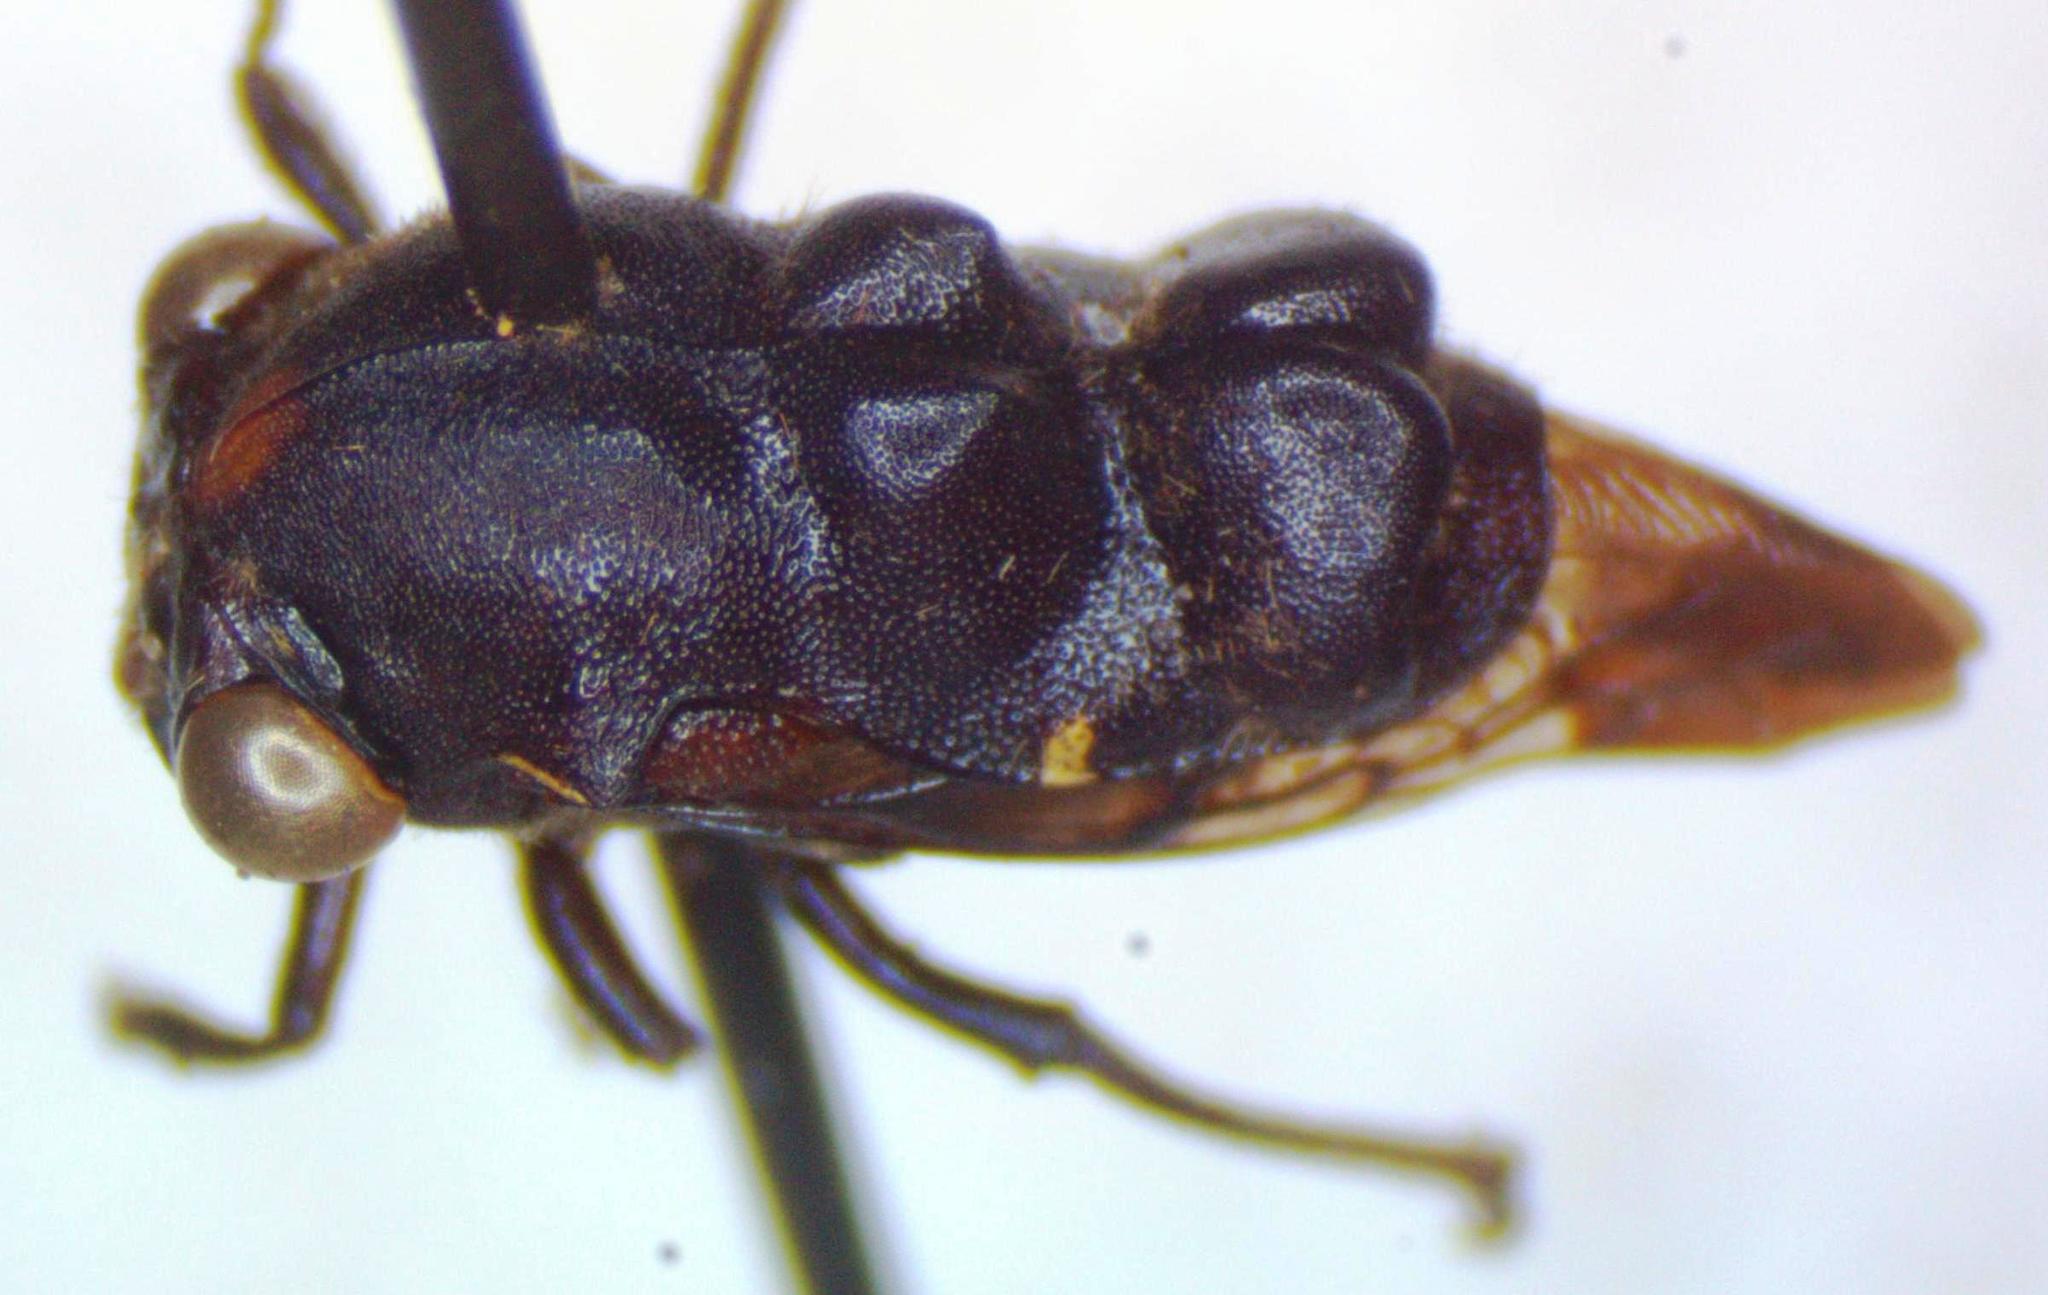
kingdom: Animalia
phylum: Arthropoda
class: Insecta
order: Hemiptera
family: Membracidae
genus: Lallemandia
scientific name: Lallemandia nodosa
